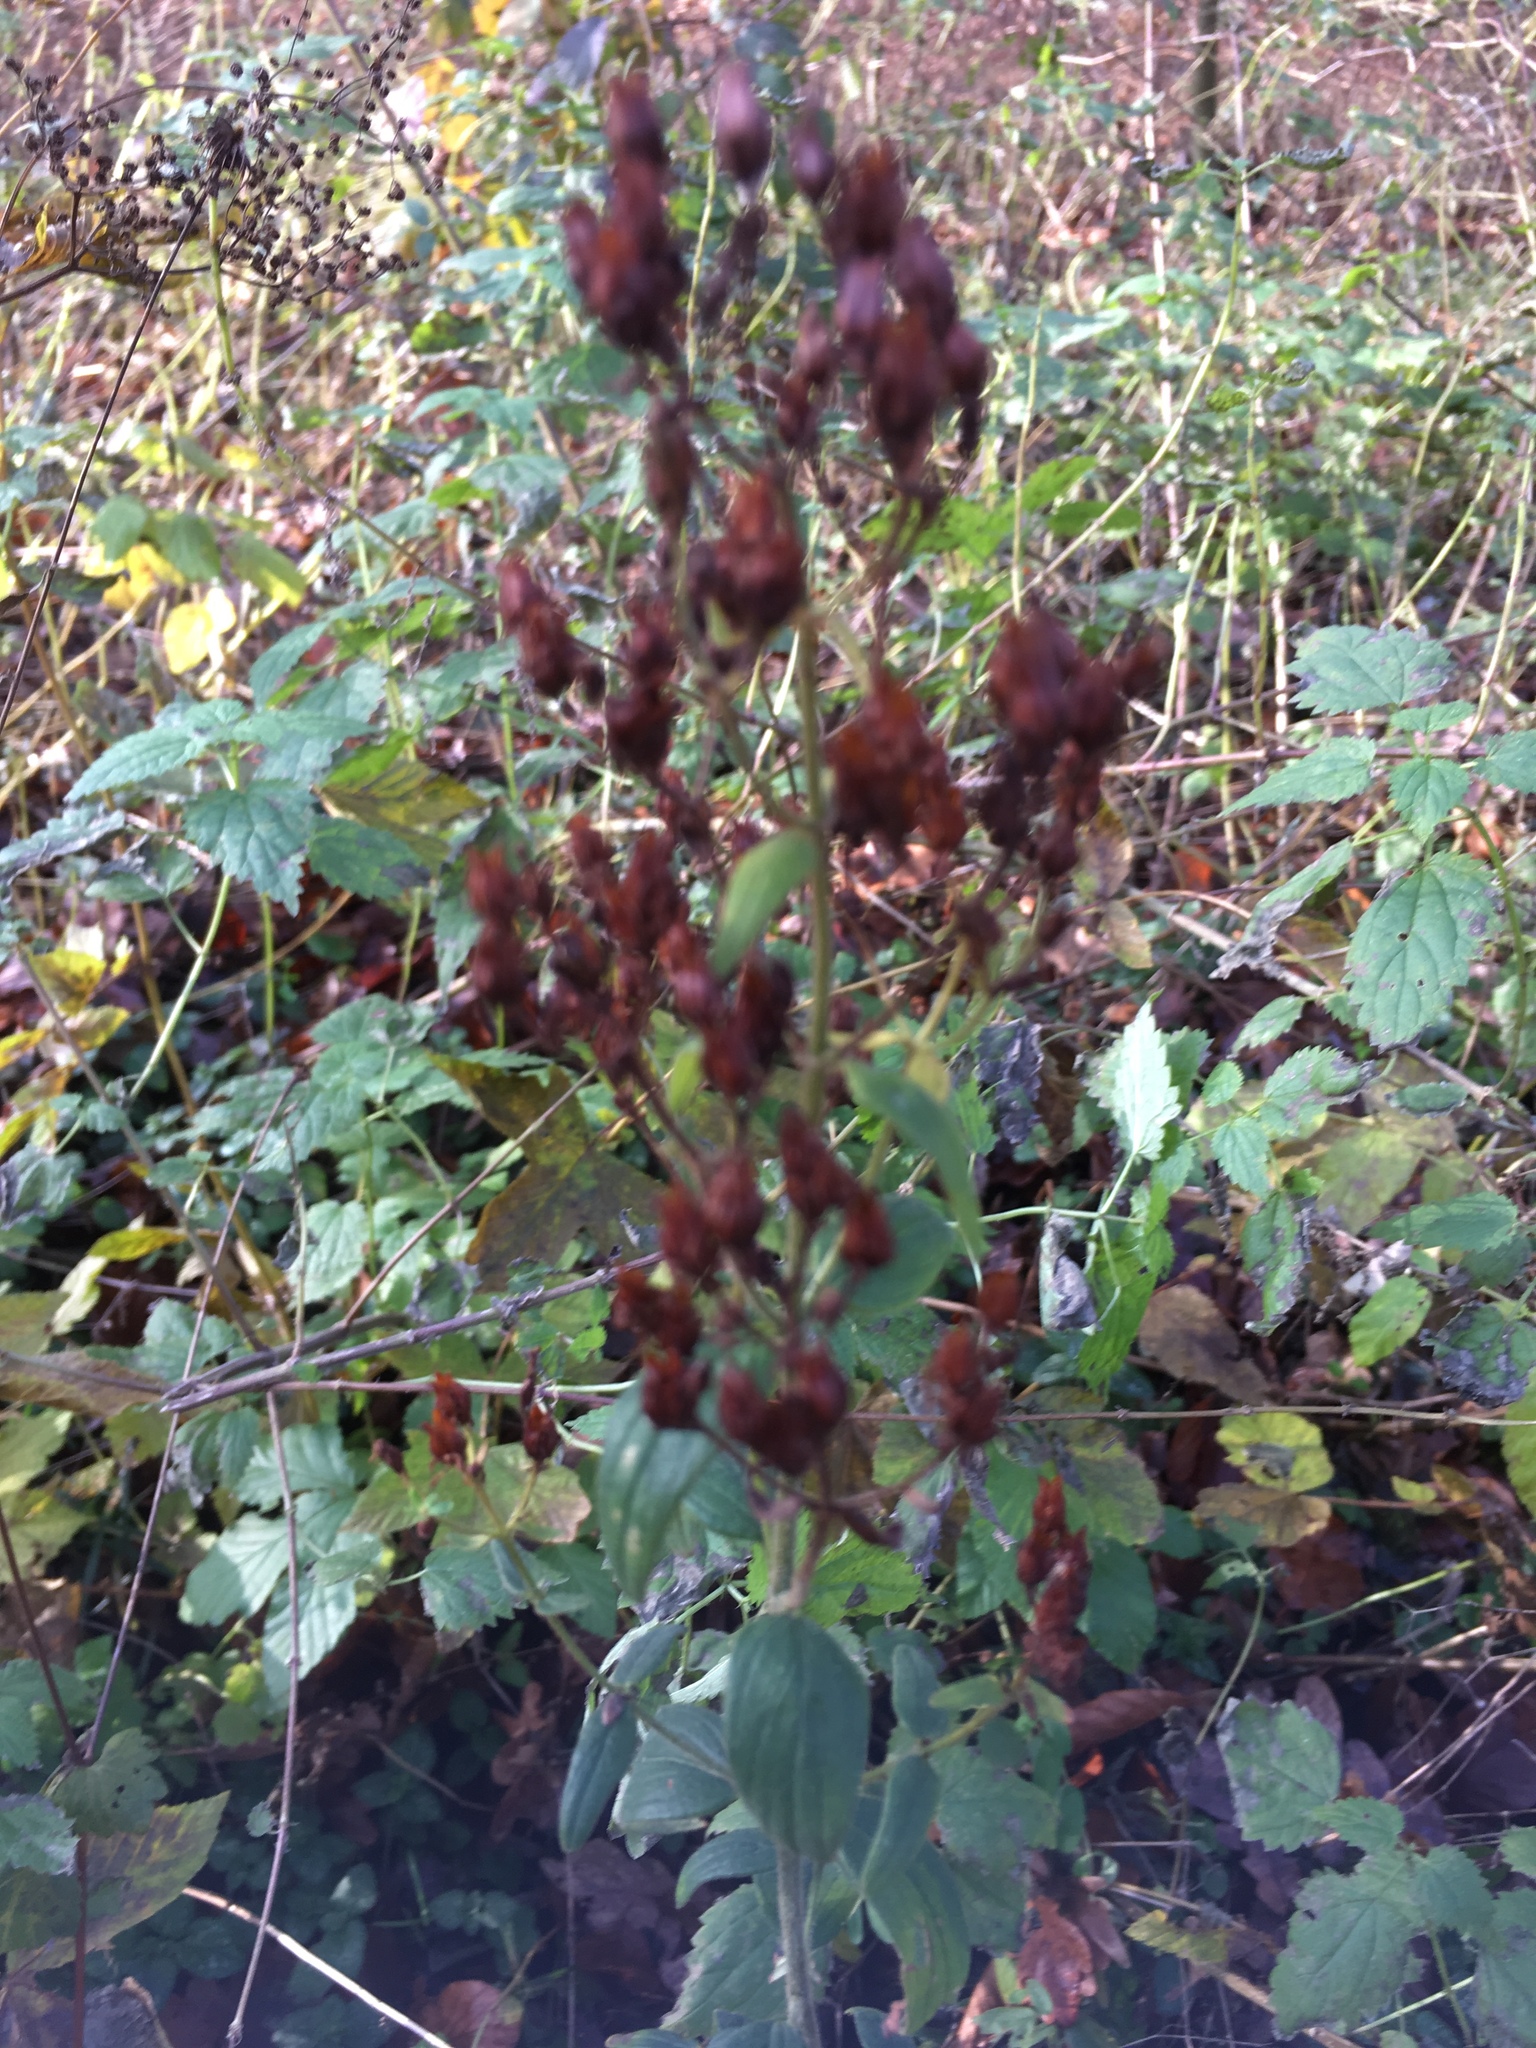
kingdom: Plantae
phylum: Tracheophyta
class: Magnoliopsida
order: Malpighiales
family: Hypericaceae
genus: Hypericum
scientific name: Hypericum perforatum
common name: Common st. johnswort
